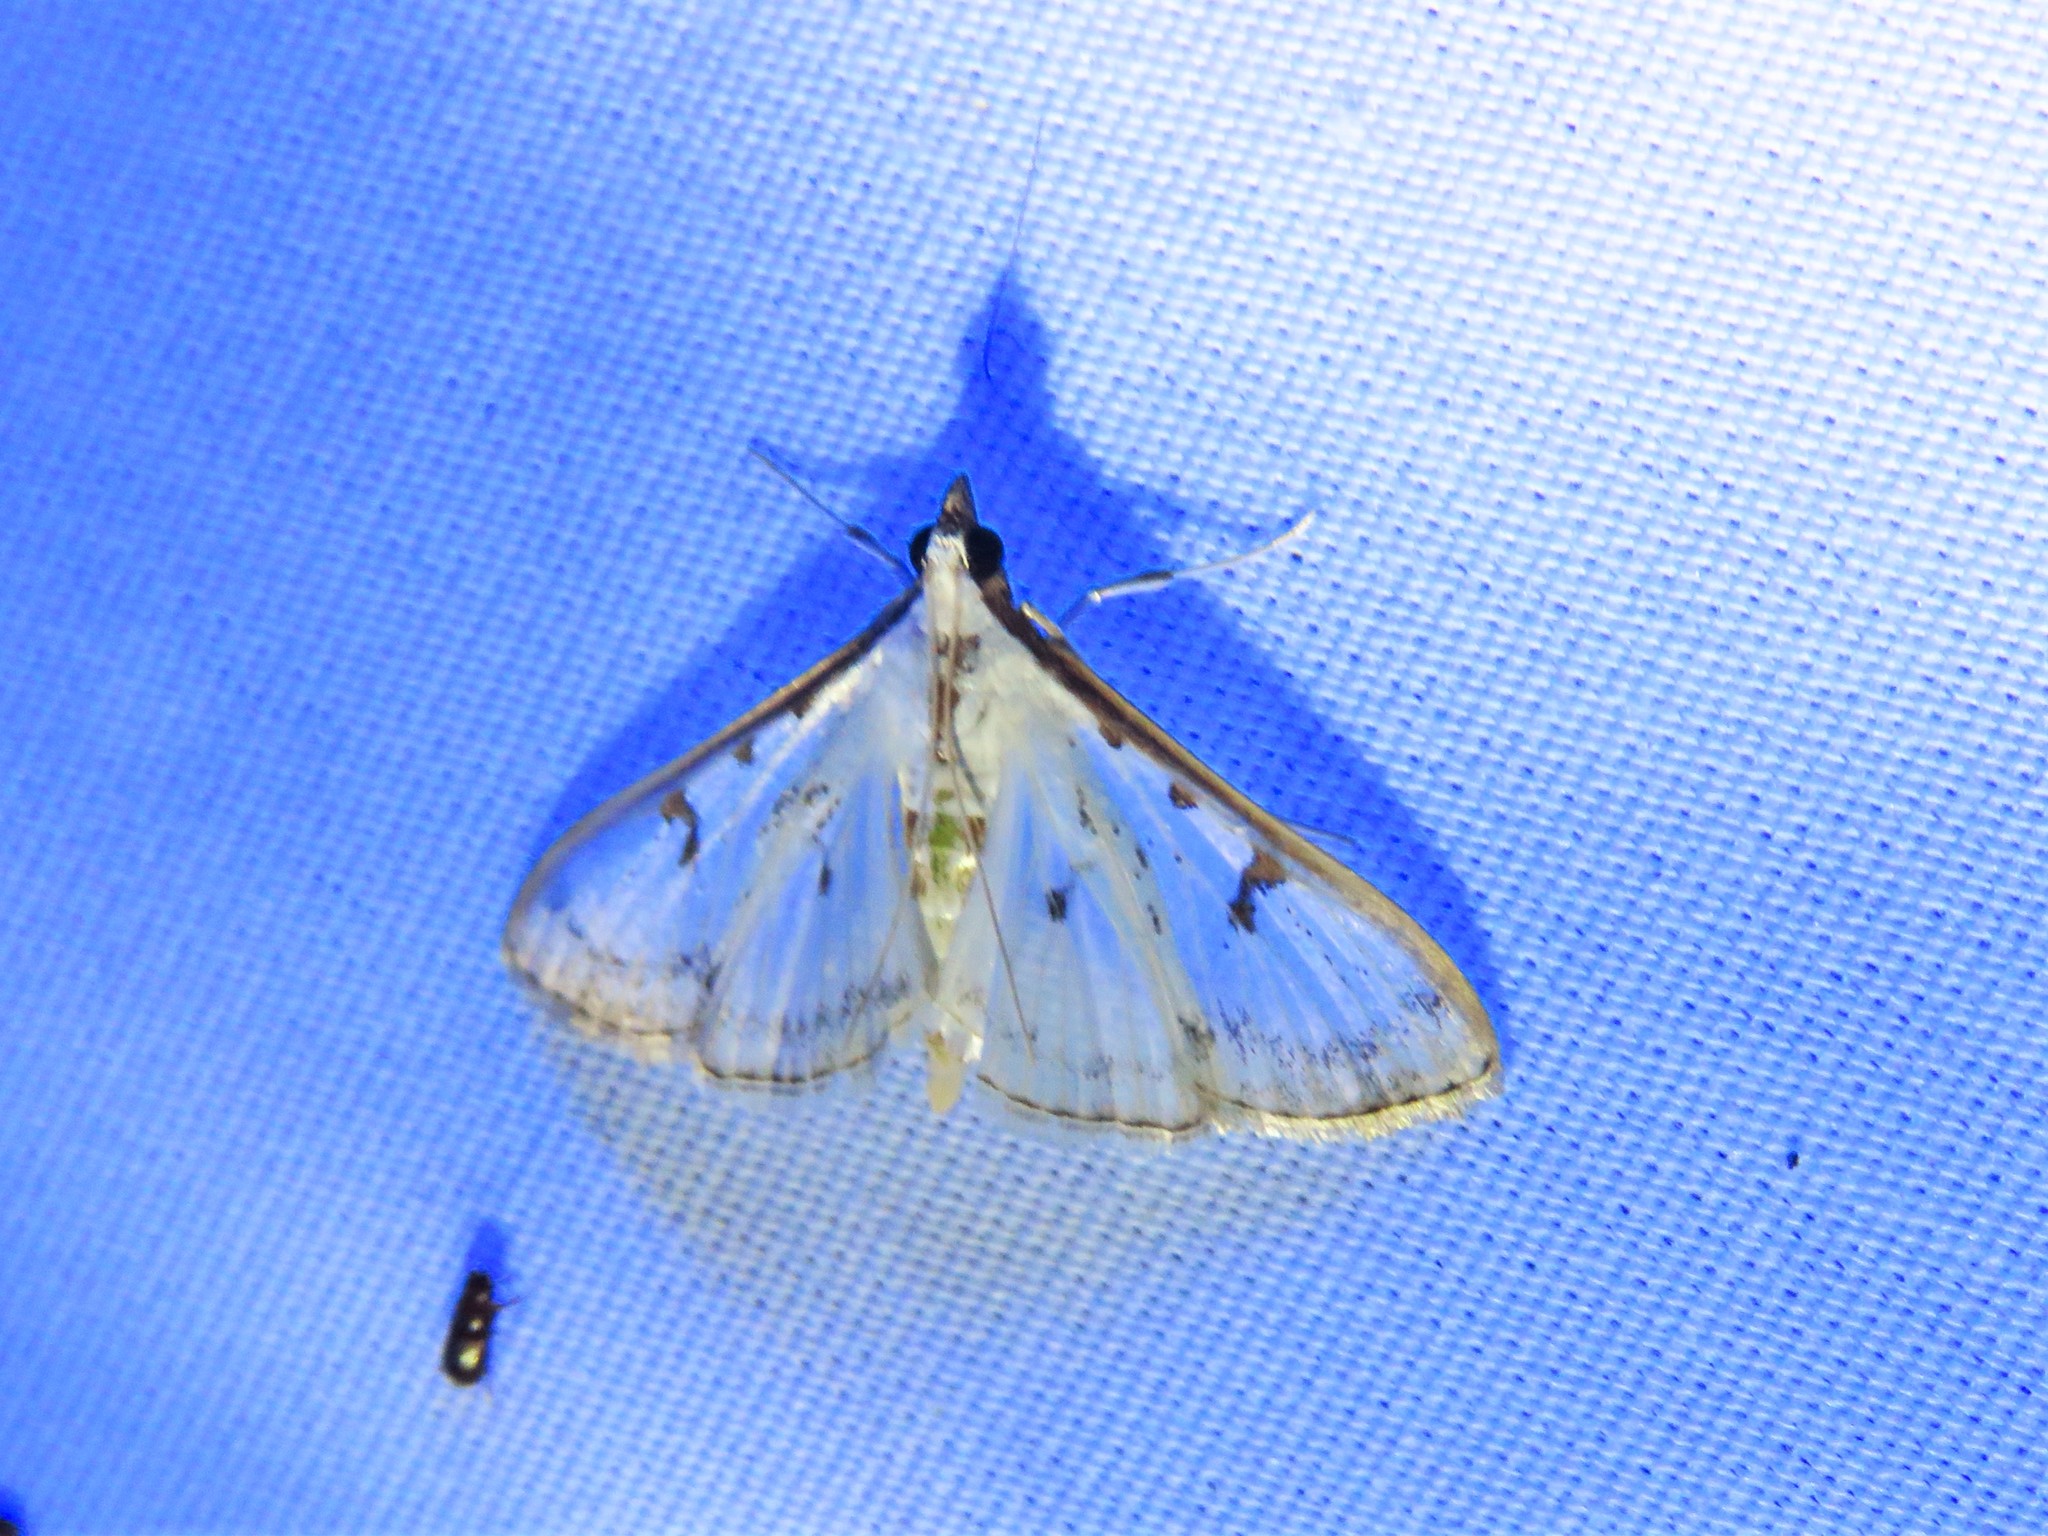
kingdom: Animalia
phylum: Arthropoda
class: Insecta
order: Lepidoptera
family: Crambidae
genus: Palpita
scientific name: Palpita gracilalis
